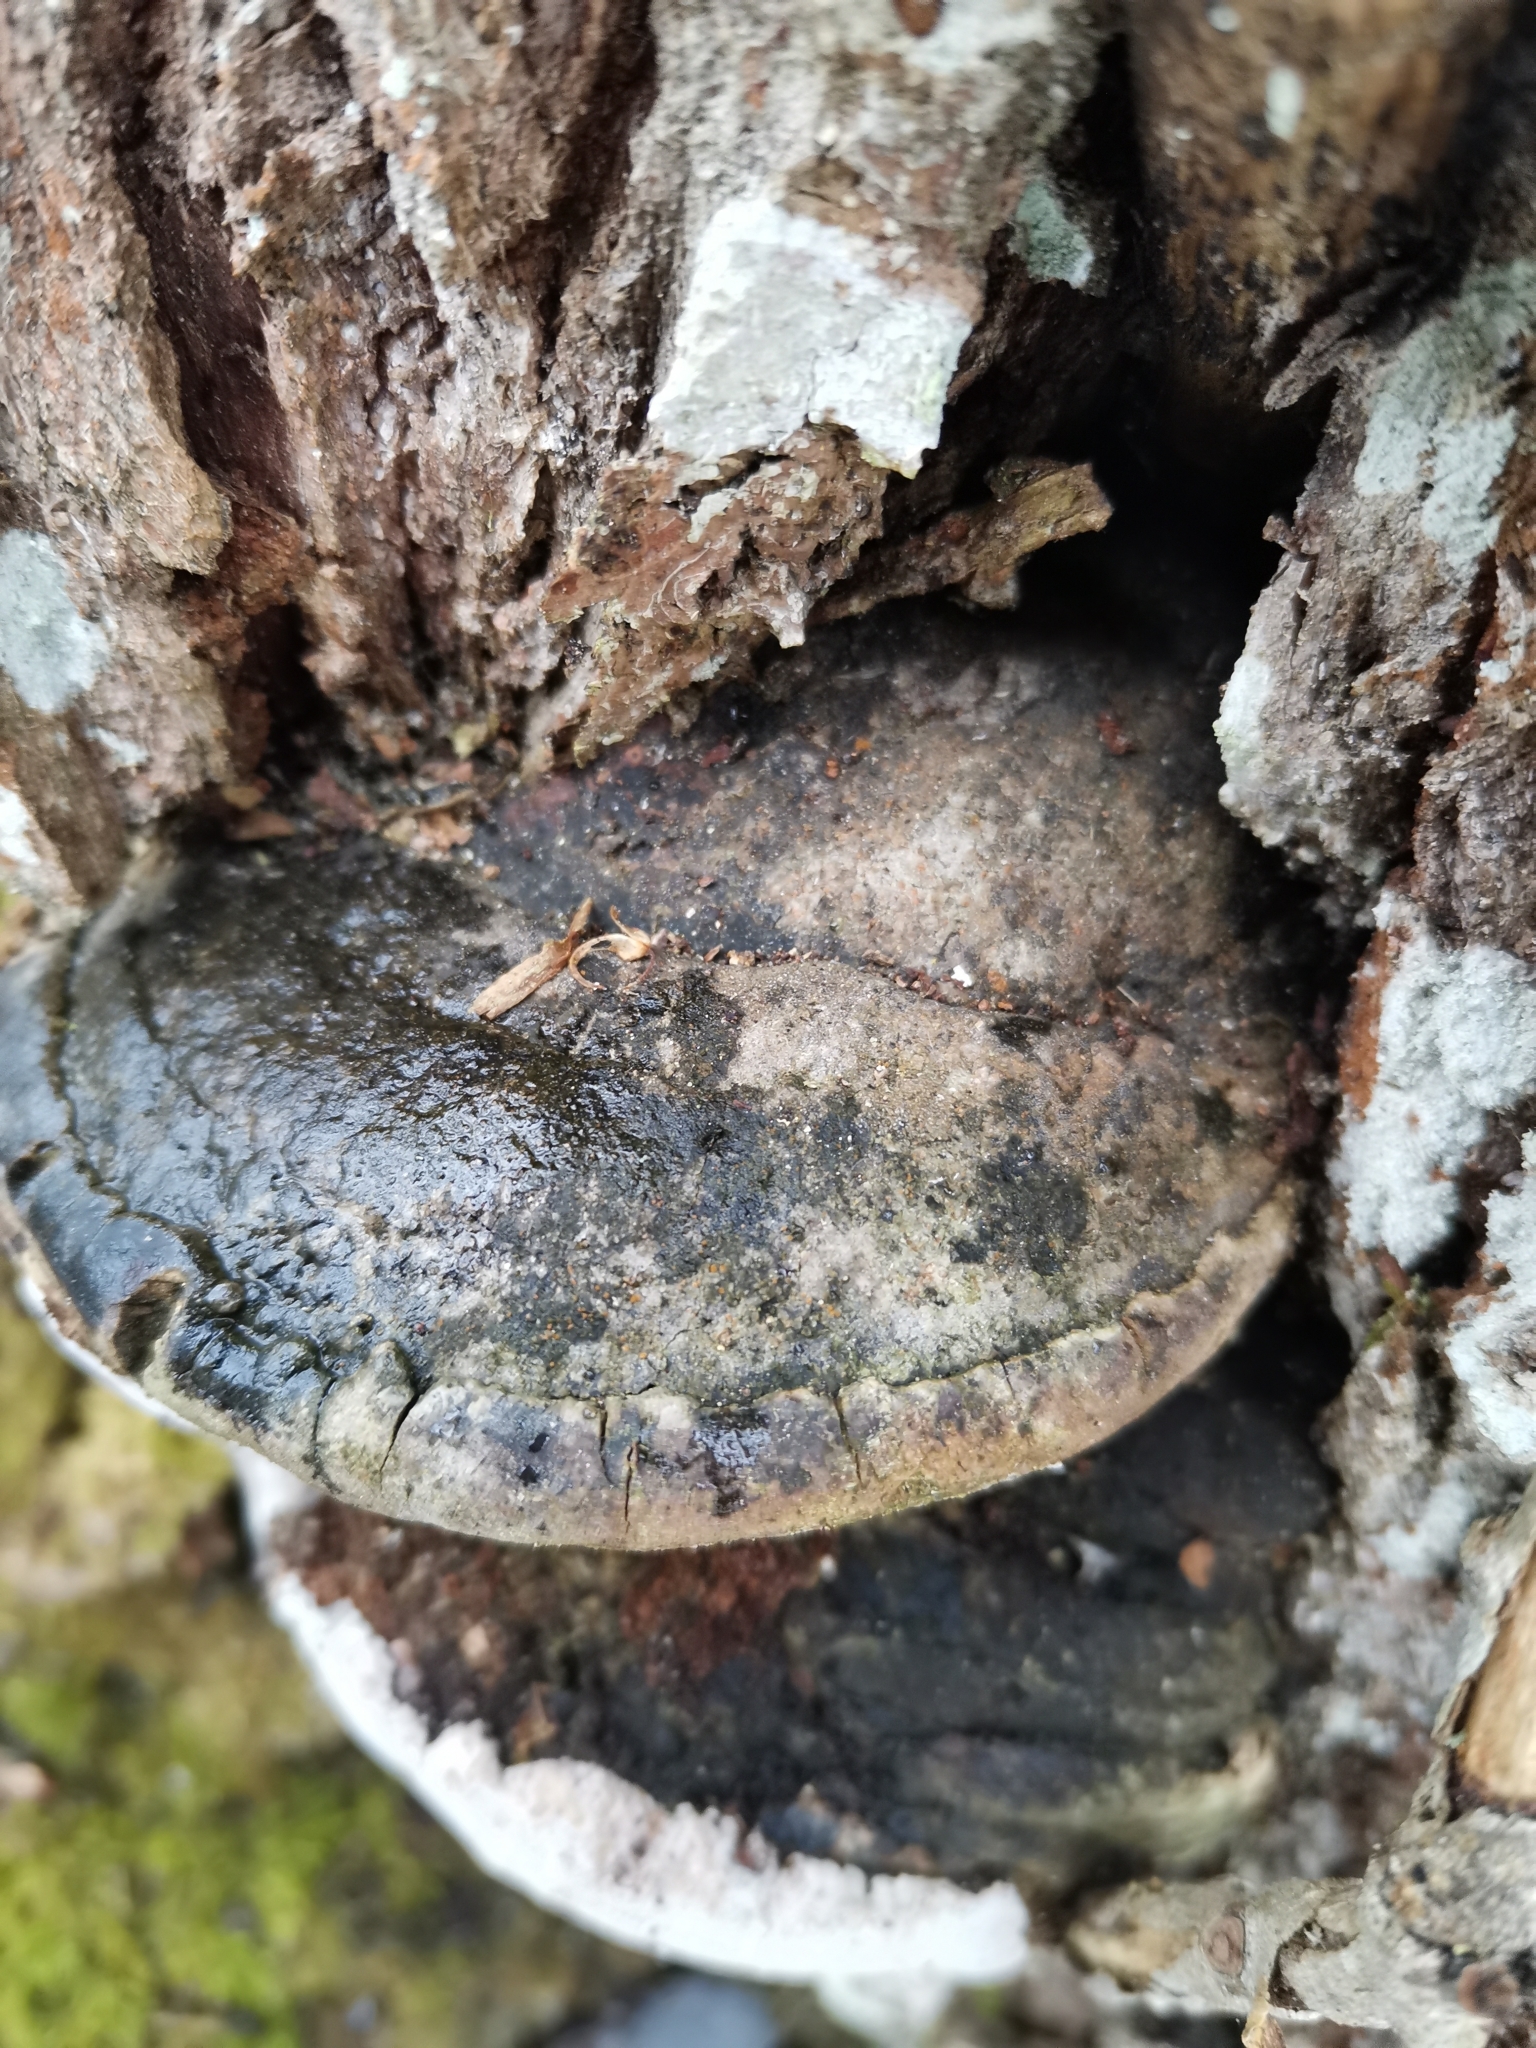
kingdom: Fungi
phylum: Basidiomycota
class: Agaricomycetes
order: Hymenochaetales
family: Hymenochaetaceae
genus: Phellinus
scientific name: Phellinus igniarius
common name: Willow bracket
